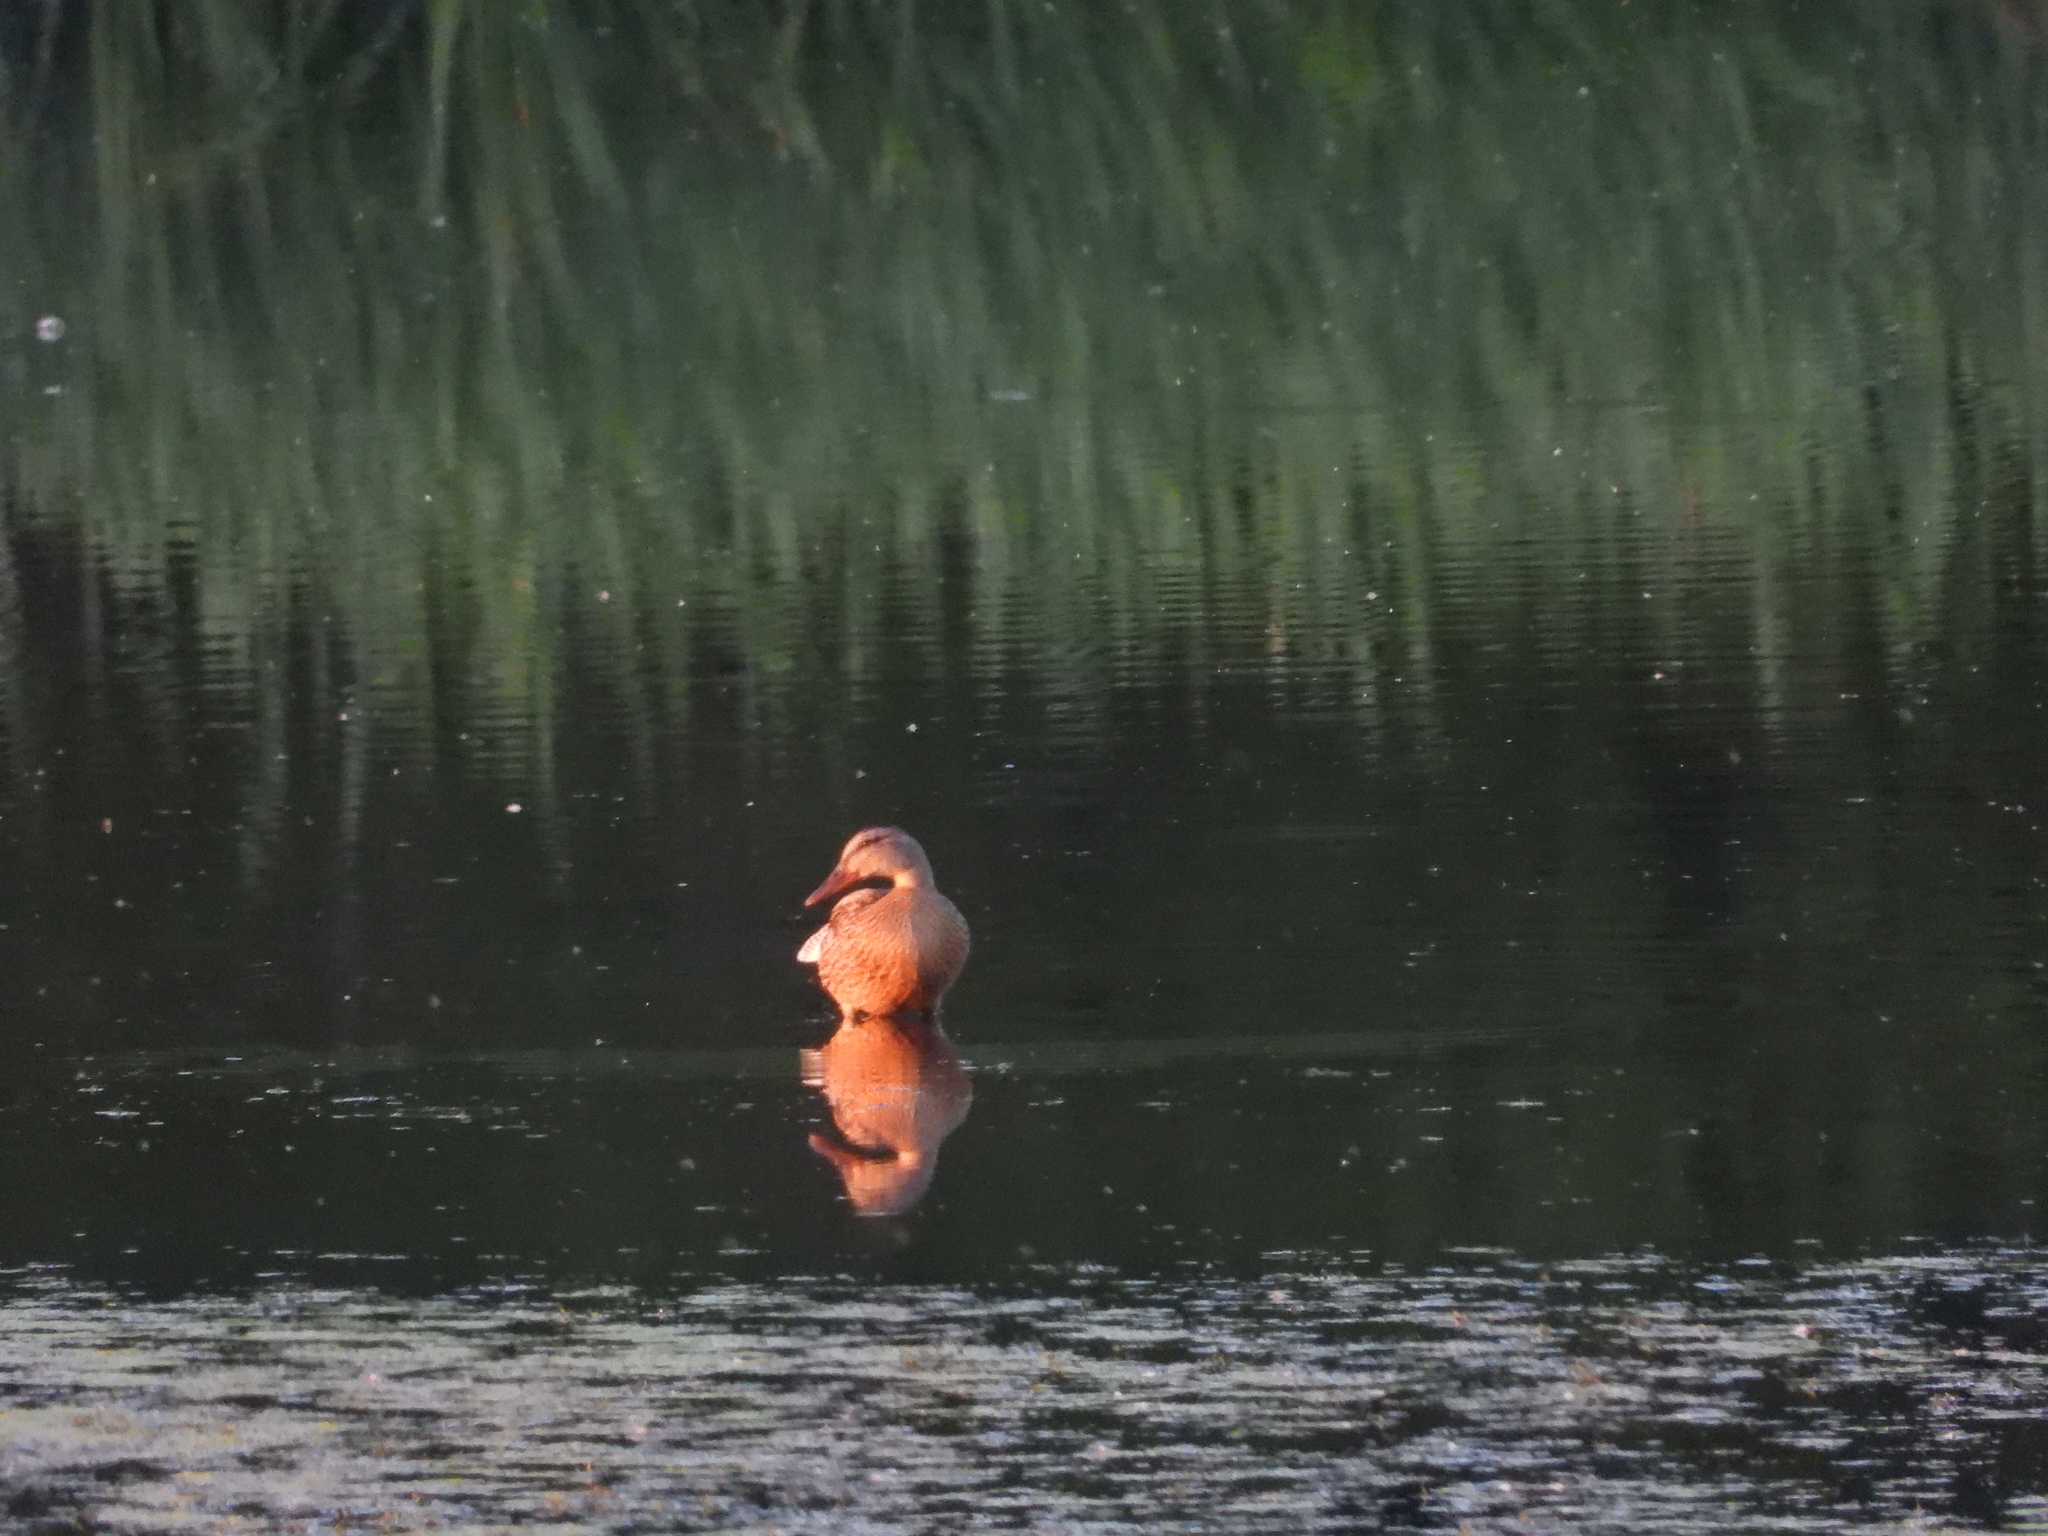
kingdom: Animalia
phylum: Chordata
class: Aves
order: Anseriformes
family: Anatidae
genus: Anas
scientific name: Anas platyrhynchos
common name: Mallard
